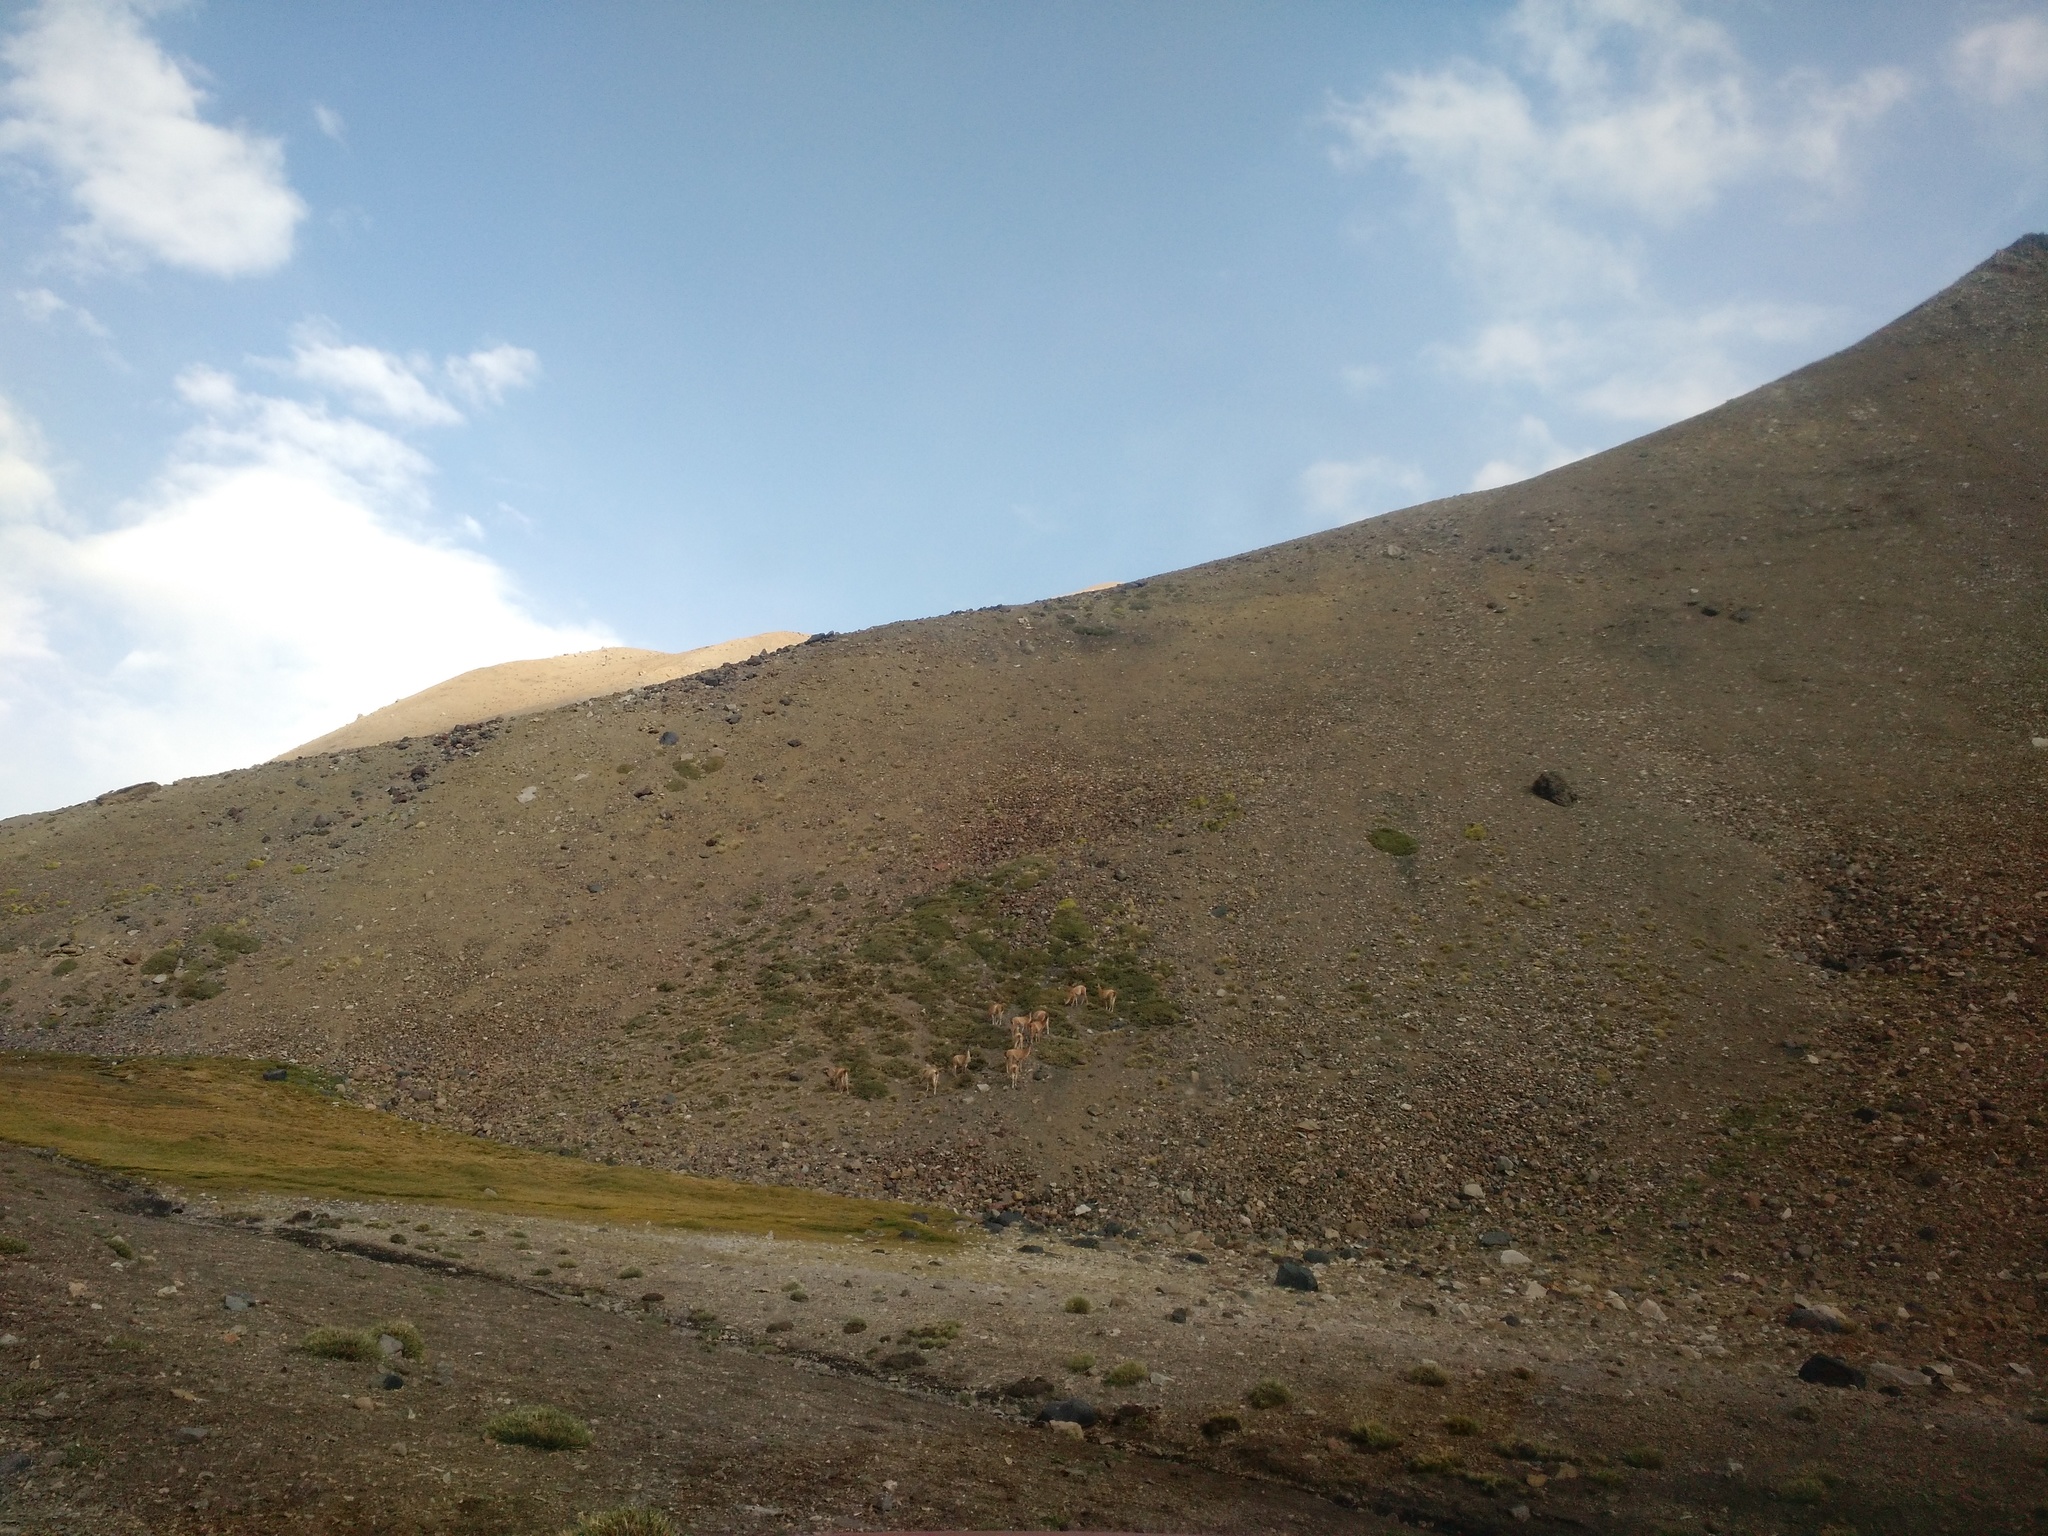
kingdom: Animalia
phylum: Chordata
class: Mammalia
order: Artiodactyla
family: Camelidae
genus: Lama
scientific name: Lama glama
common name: Llama
